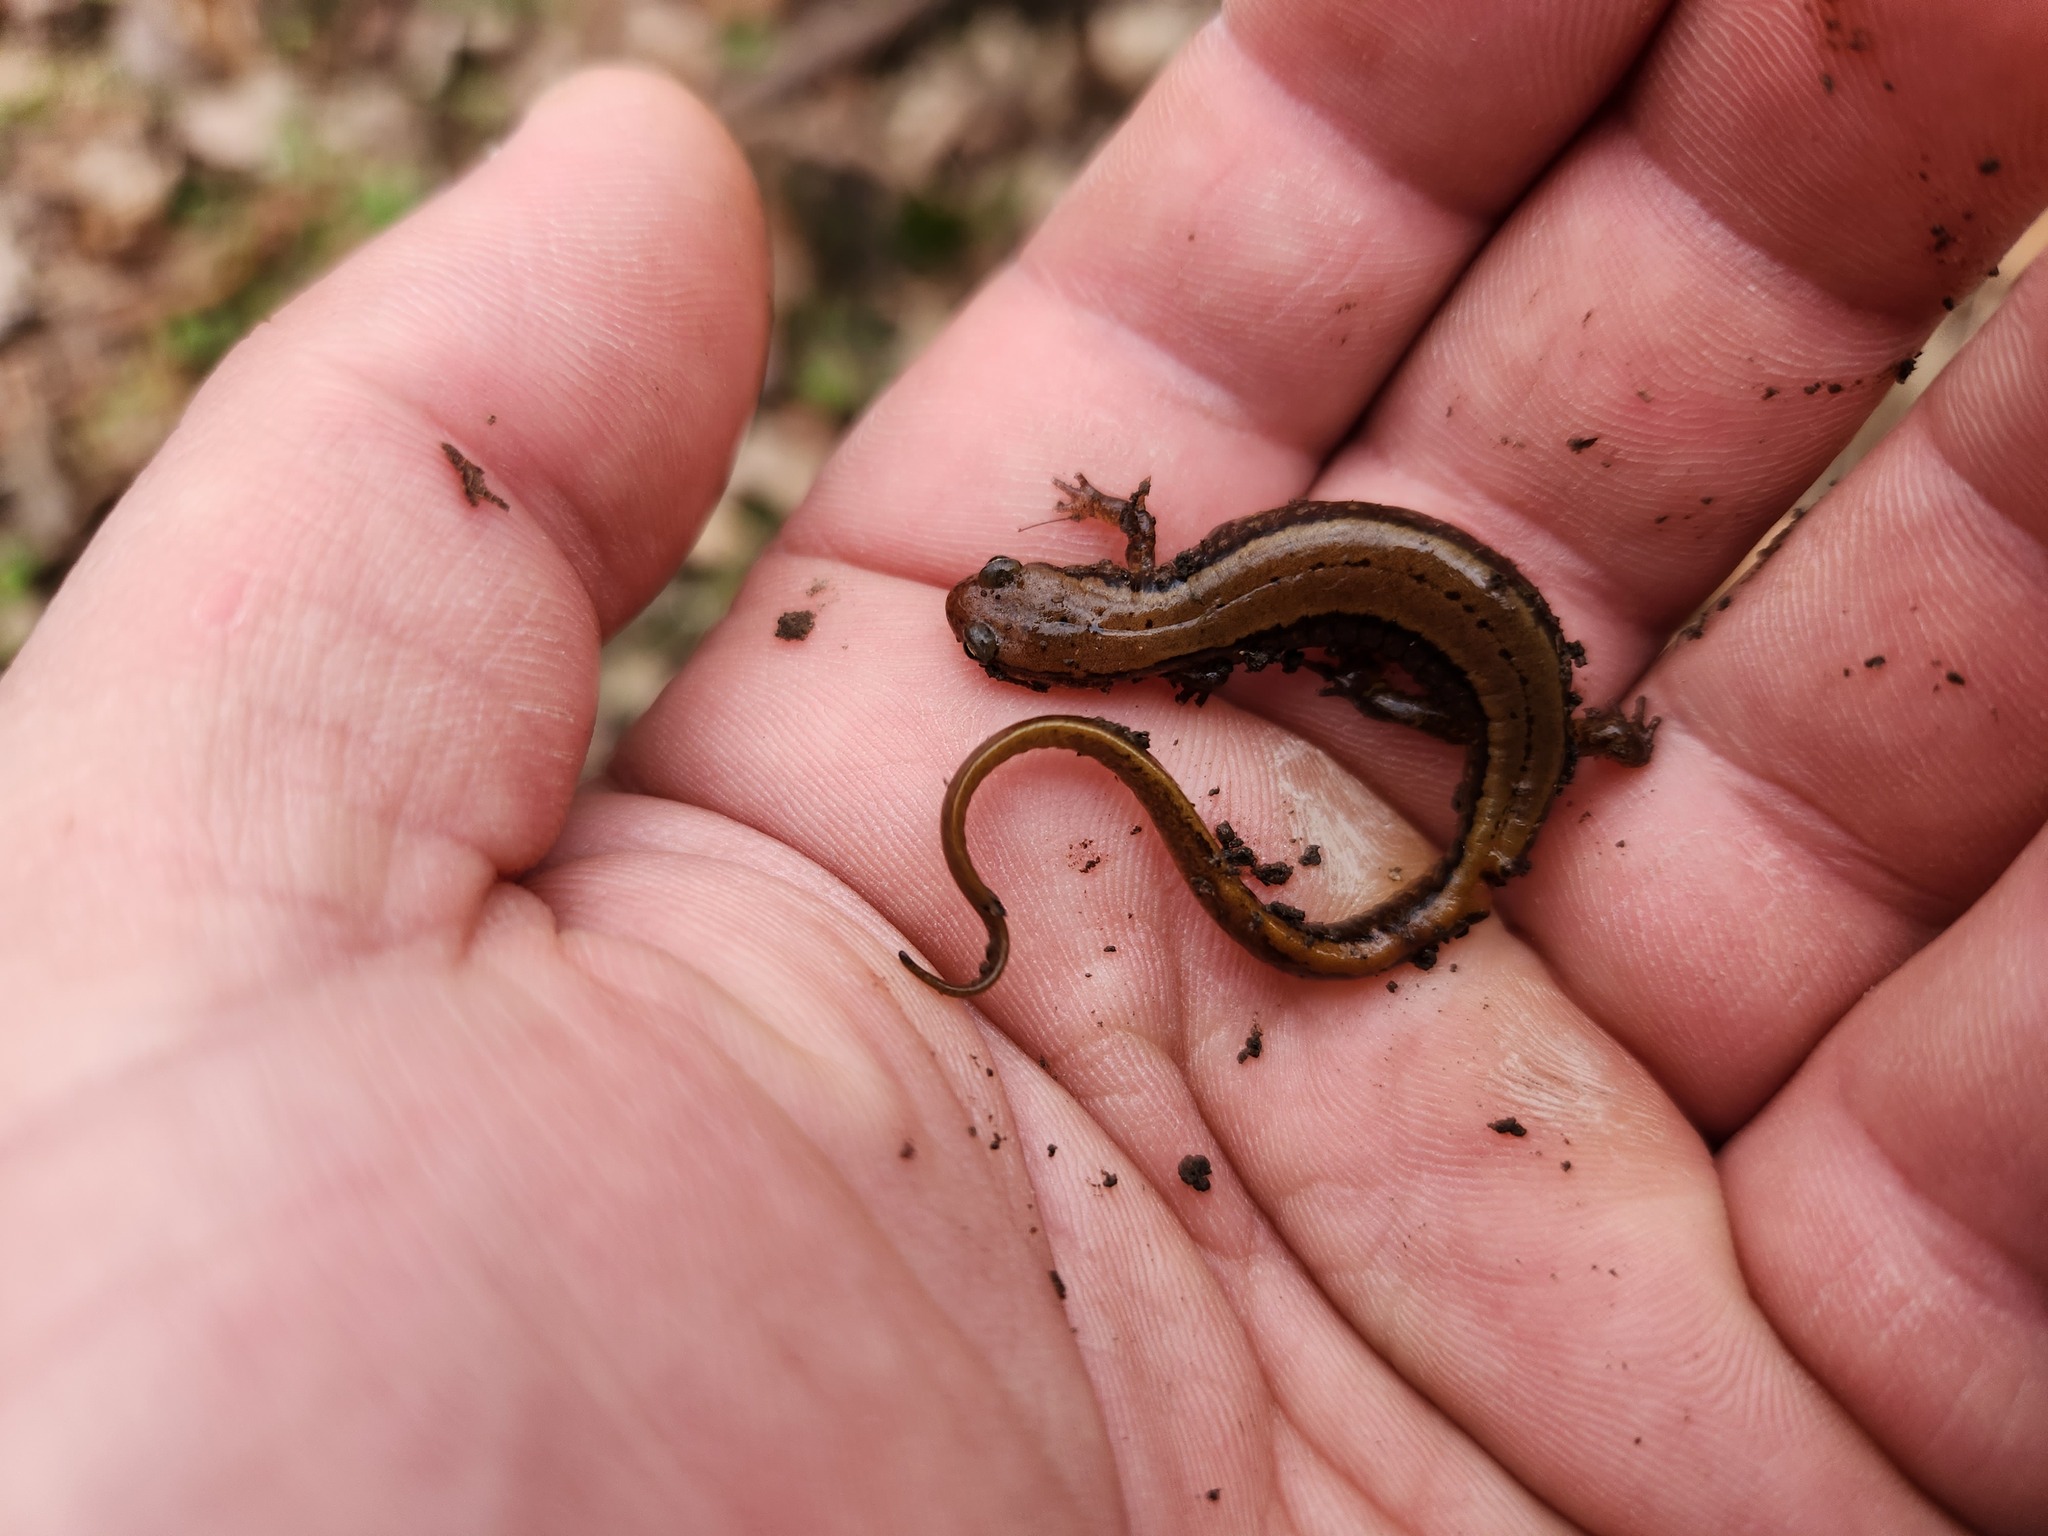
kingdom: Animalia
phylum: Chordata
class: Amphibia
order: Caudata
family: Plethodontidae
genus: Eurycea
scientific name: Eurycea cirrigera
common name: Southern two-lined salamander
